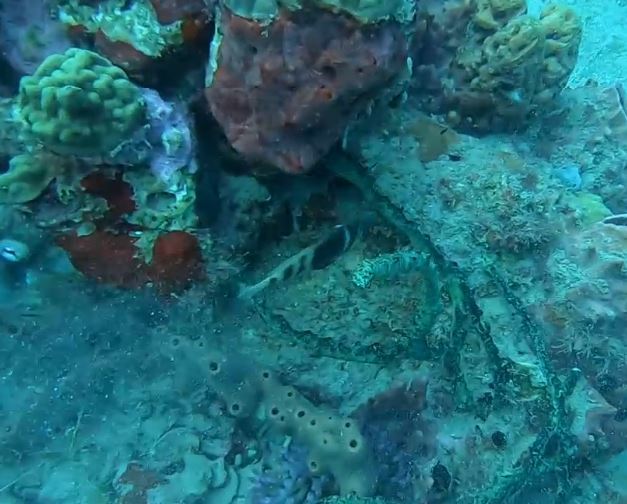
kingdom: Animalia
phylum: Chordata
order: Perciformes
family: Serranidae
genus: Hypoplectrus
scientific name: Hypoplectrus puella
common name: Barred hamlet
